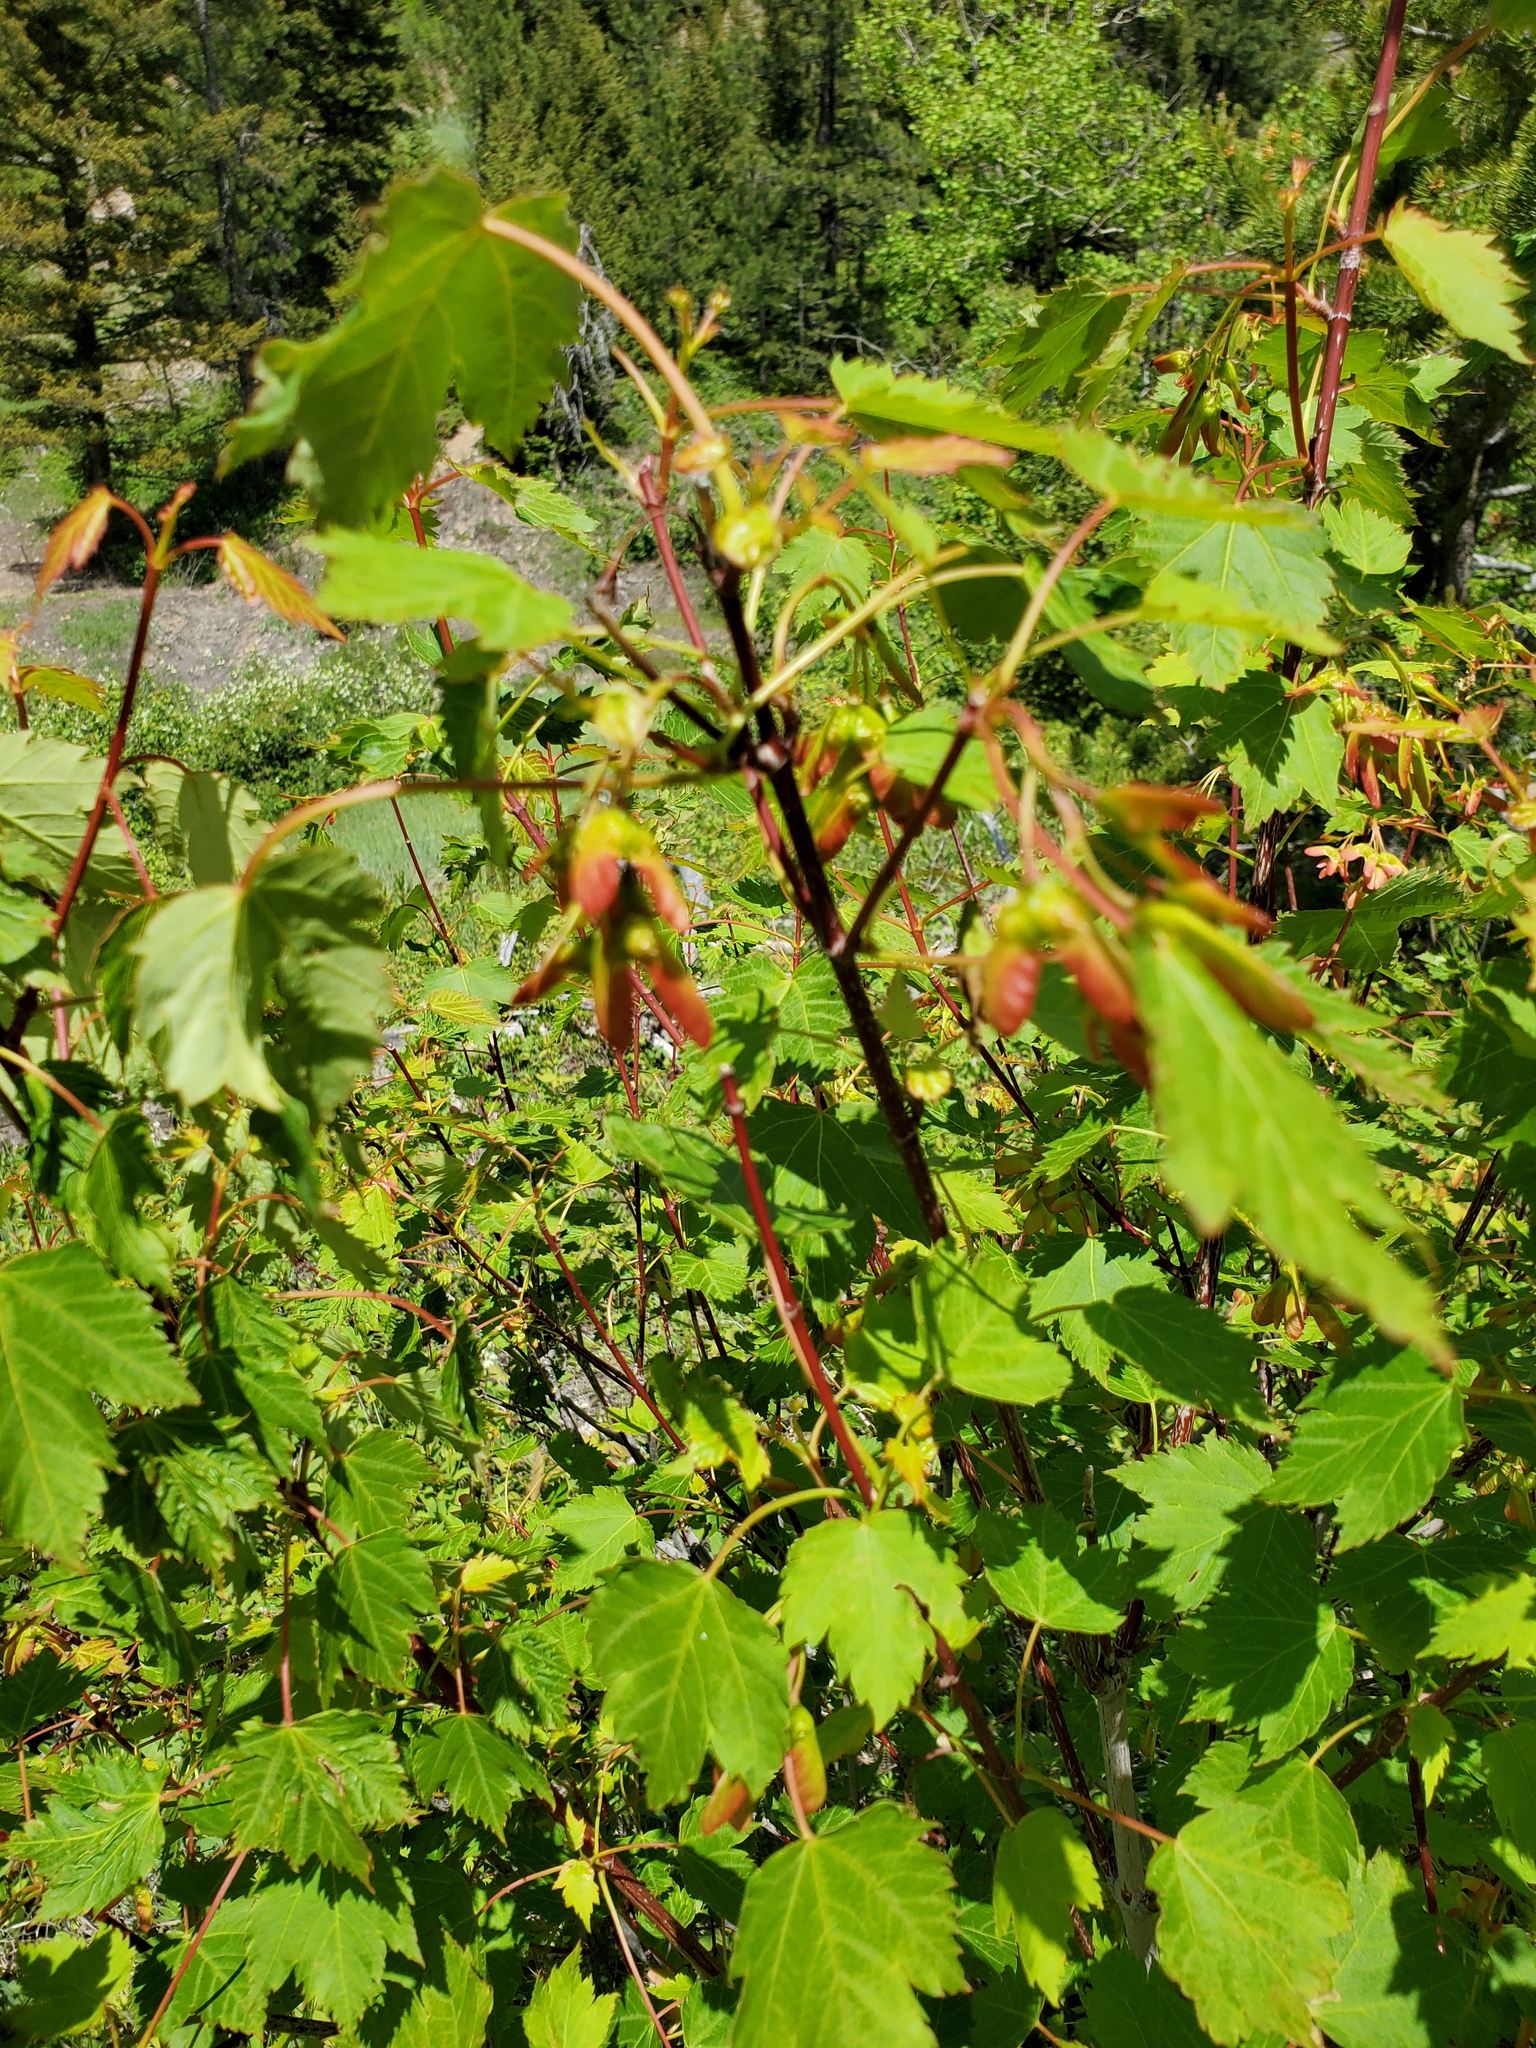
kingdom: Plantae
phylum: Tracheophyta
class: Magnoliopsida
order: Sapindales
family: Sapindaceae
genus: Acer
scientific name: Acer glabrum
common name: Rocky mountain maple
